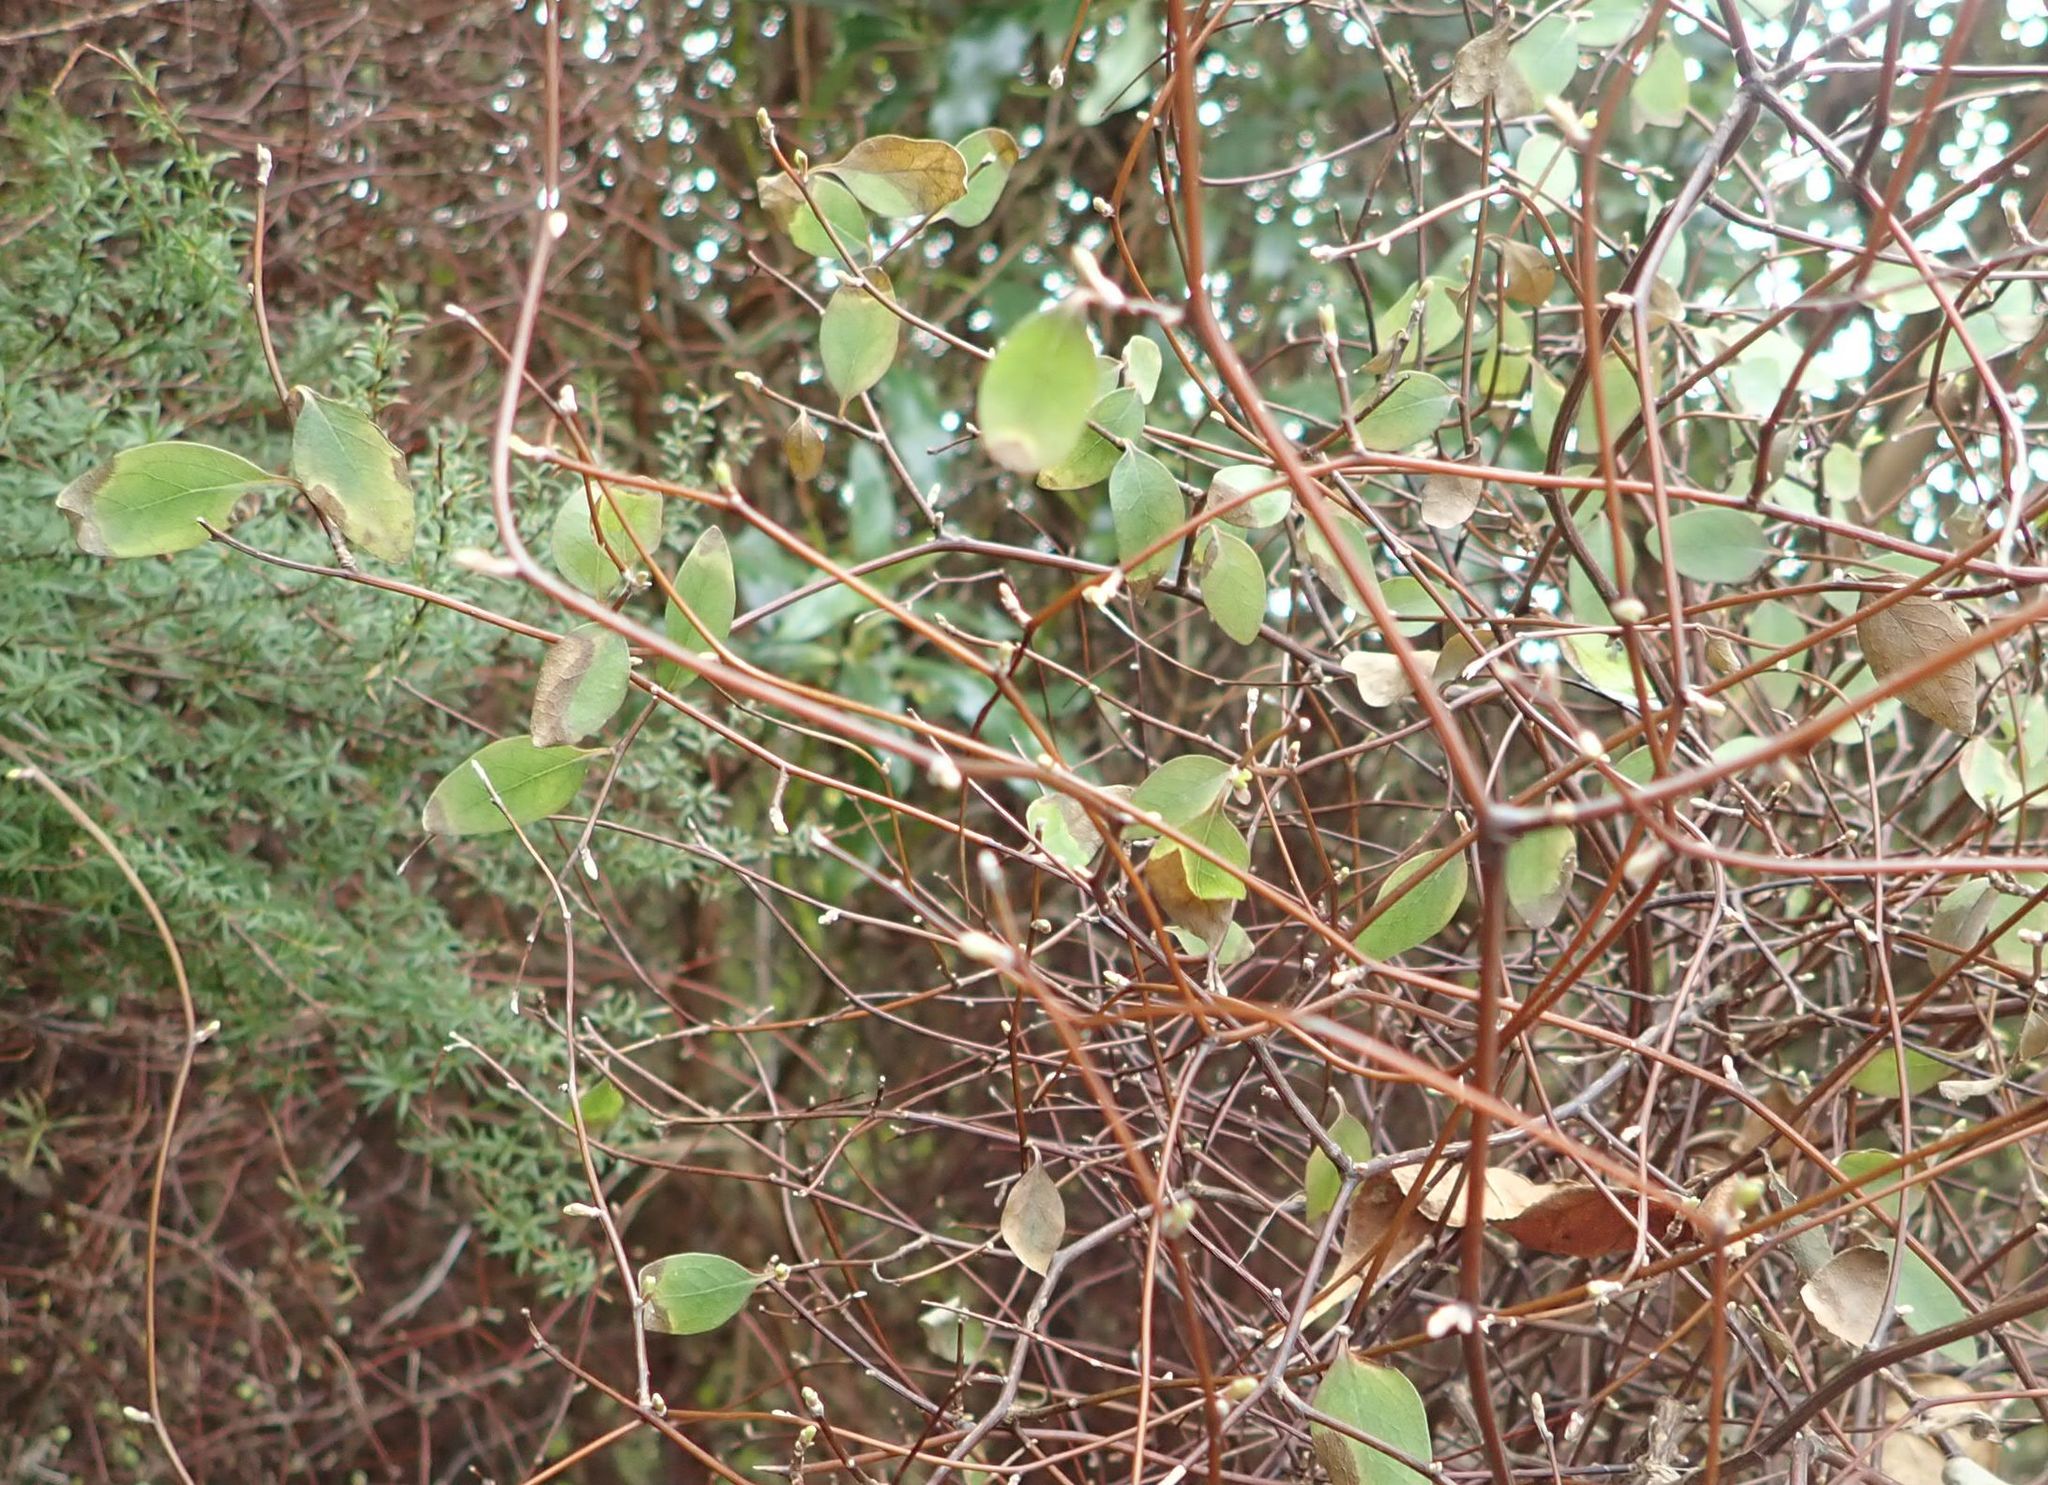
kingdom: Plantae
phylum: Tracheophyta
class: Magnoliopsida
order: Asterales
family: Asteraceae
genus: Olearia
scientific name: Olearia fragrantissima
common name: Fragrant tree daisy
